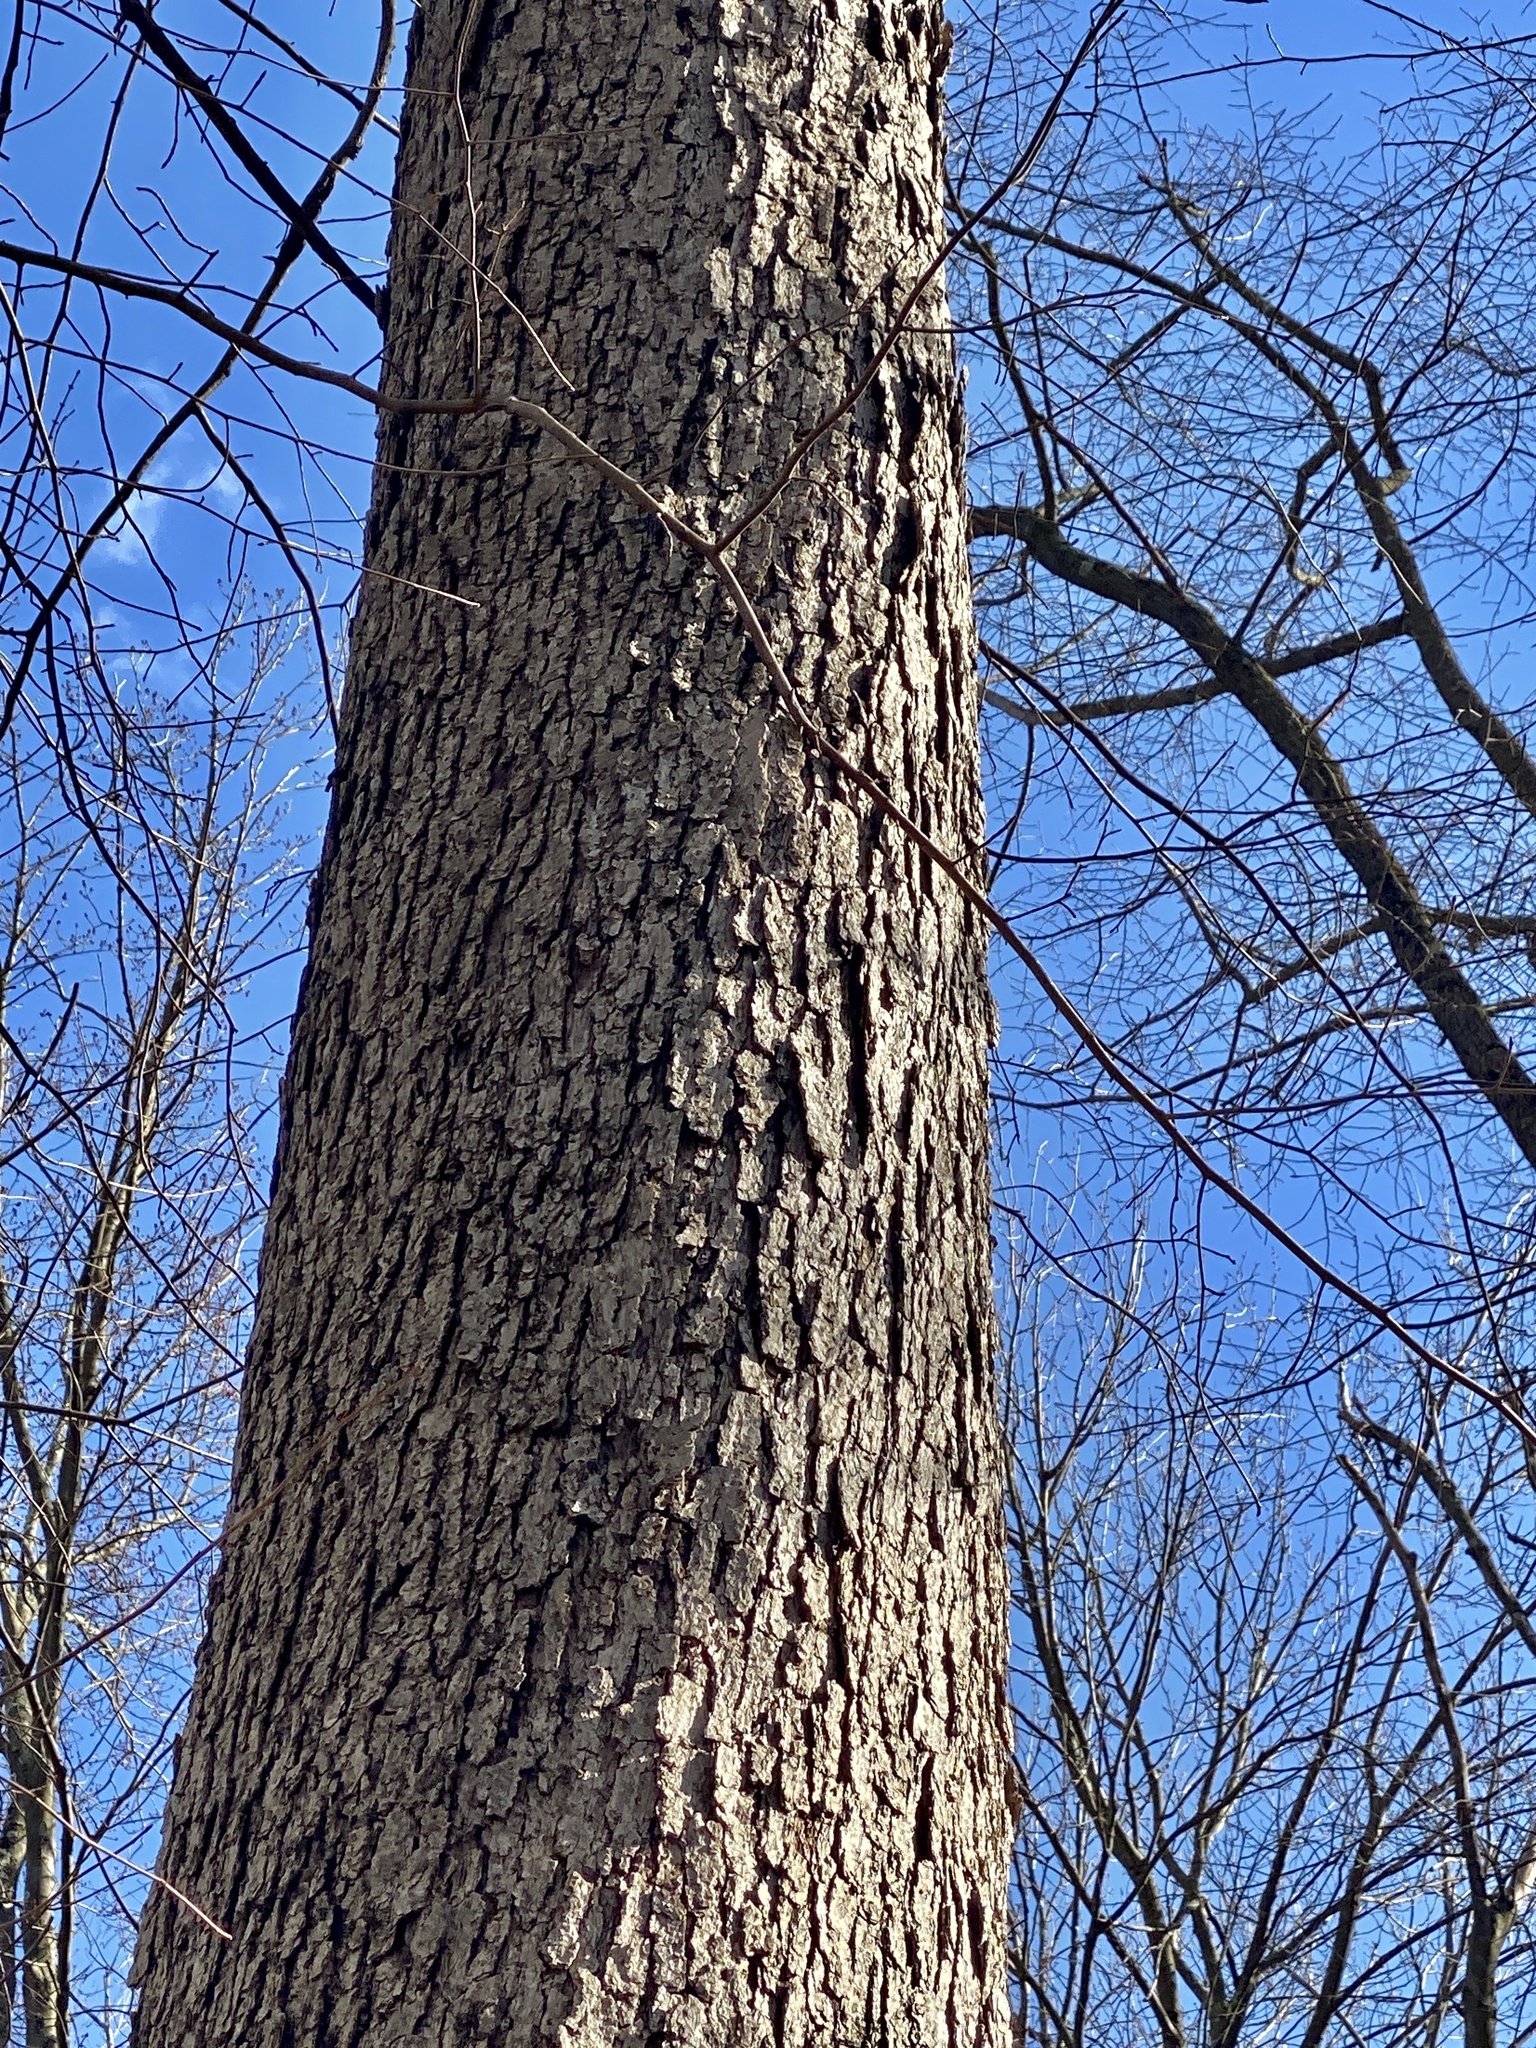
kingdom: Plantae
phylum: Tracheophyta
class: Magnoliopsida
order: Fagales
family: Fagaceae
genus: Quercus
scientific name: Quercus alba
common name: White oak
